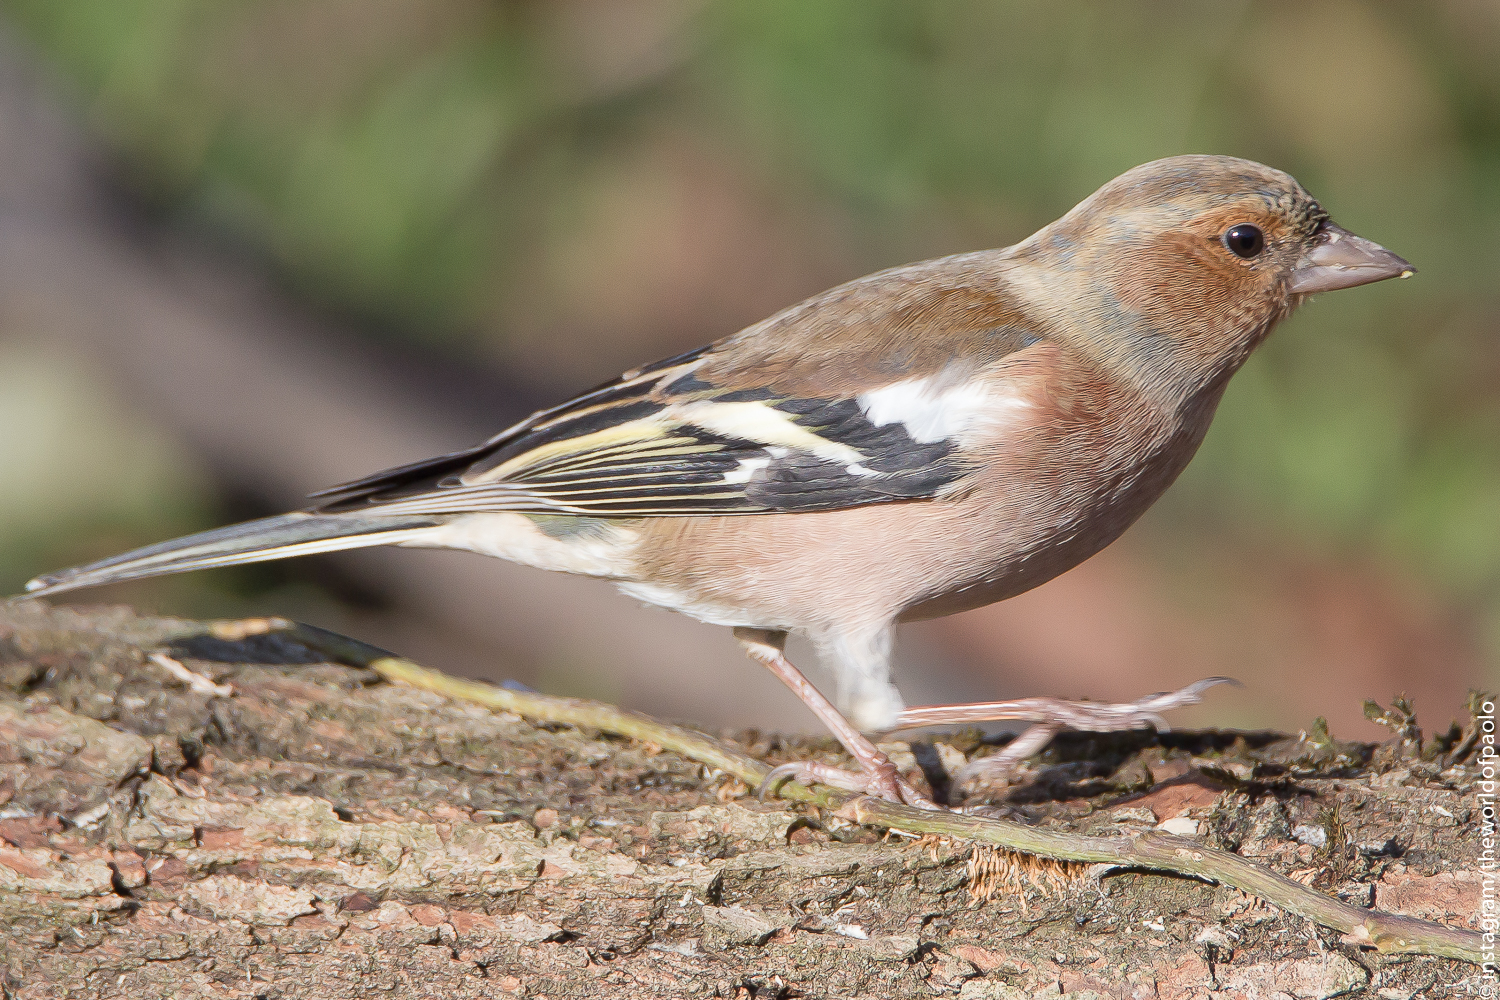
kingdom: Animalia
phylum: Chordata
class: Aves
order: Passeriformes
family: Fringillidae
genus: Fringilla
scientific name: Fringilla coelebs
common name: Common chaffinch
